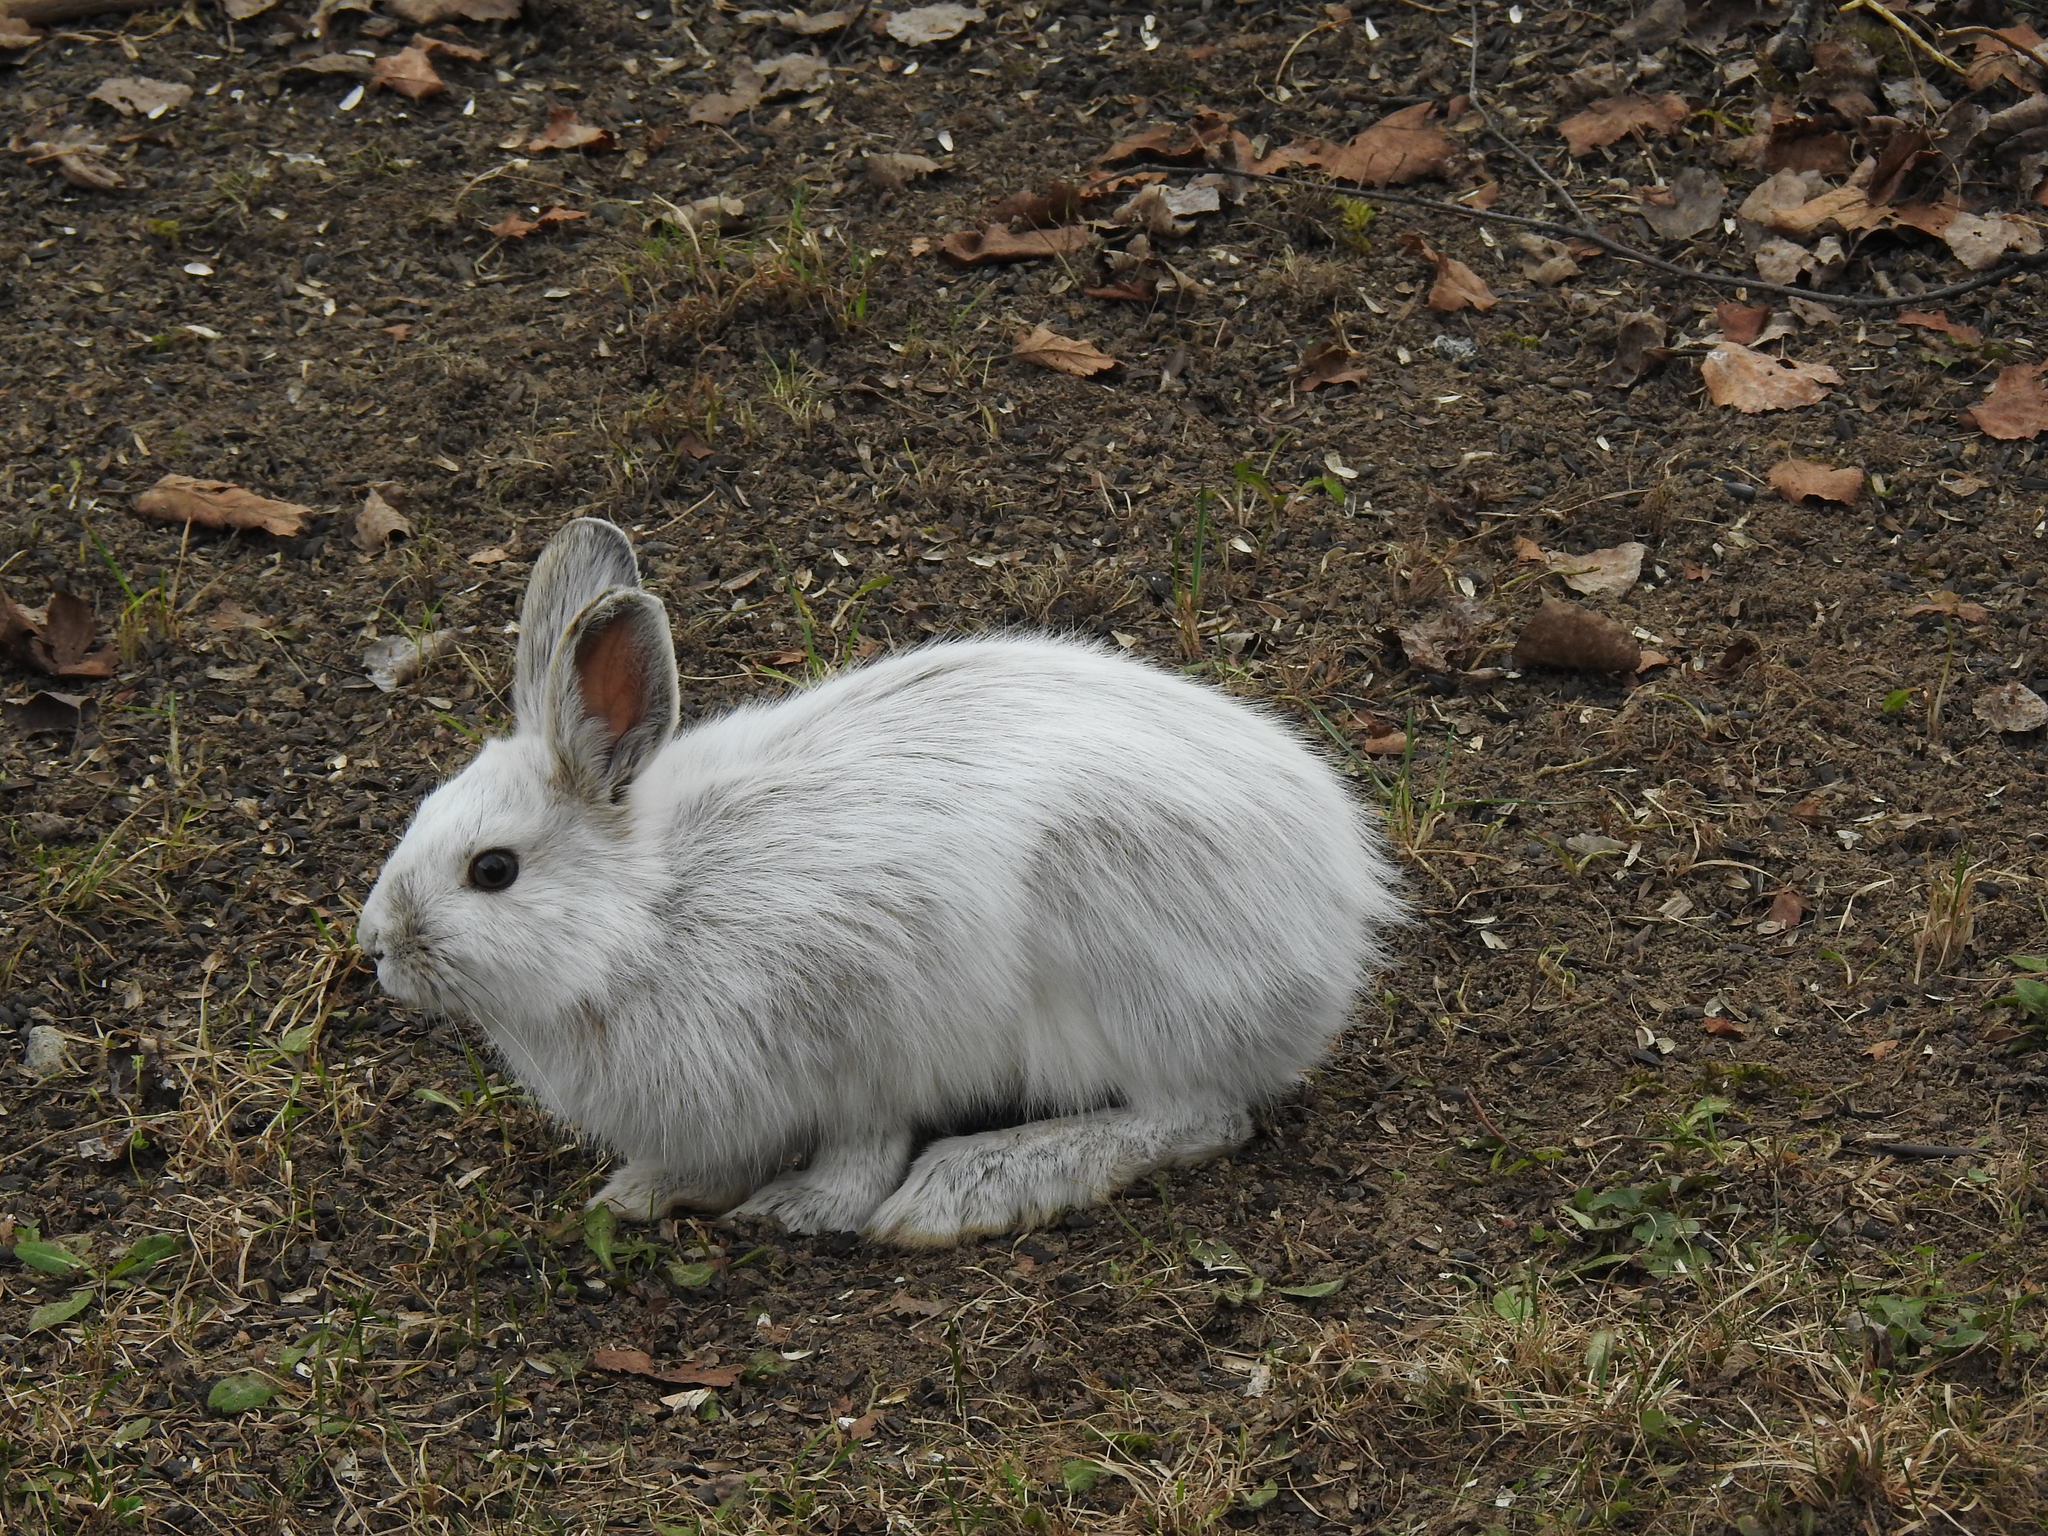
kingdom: Animalia
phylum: Chordata
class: Mammalia
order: Lagomorpha
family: Leporidae
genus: Lepus
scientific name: Lepus americanus
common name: Snowshoe hare
